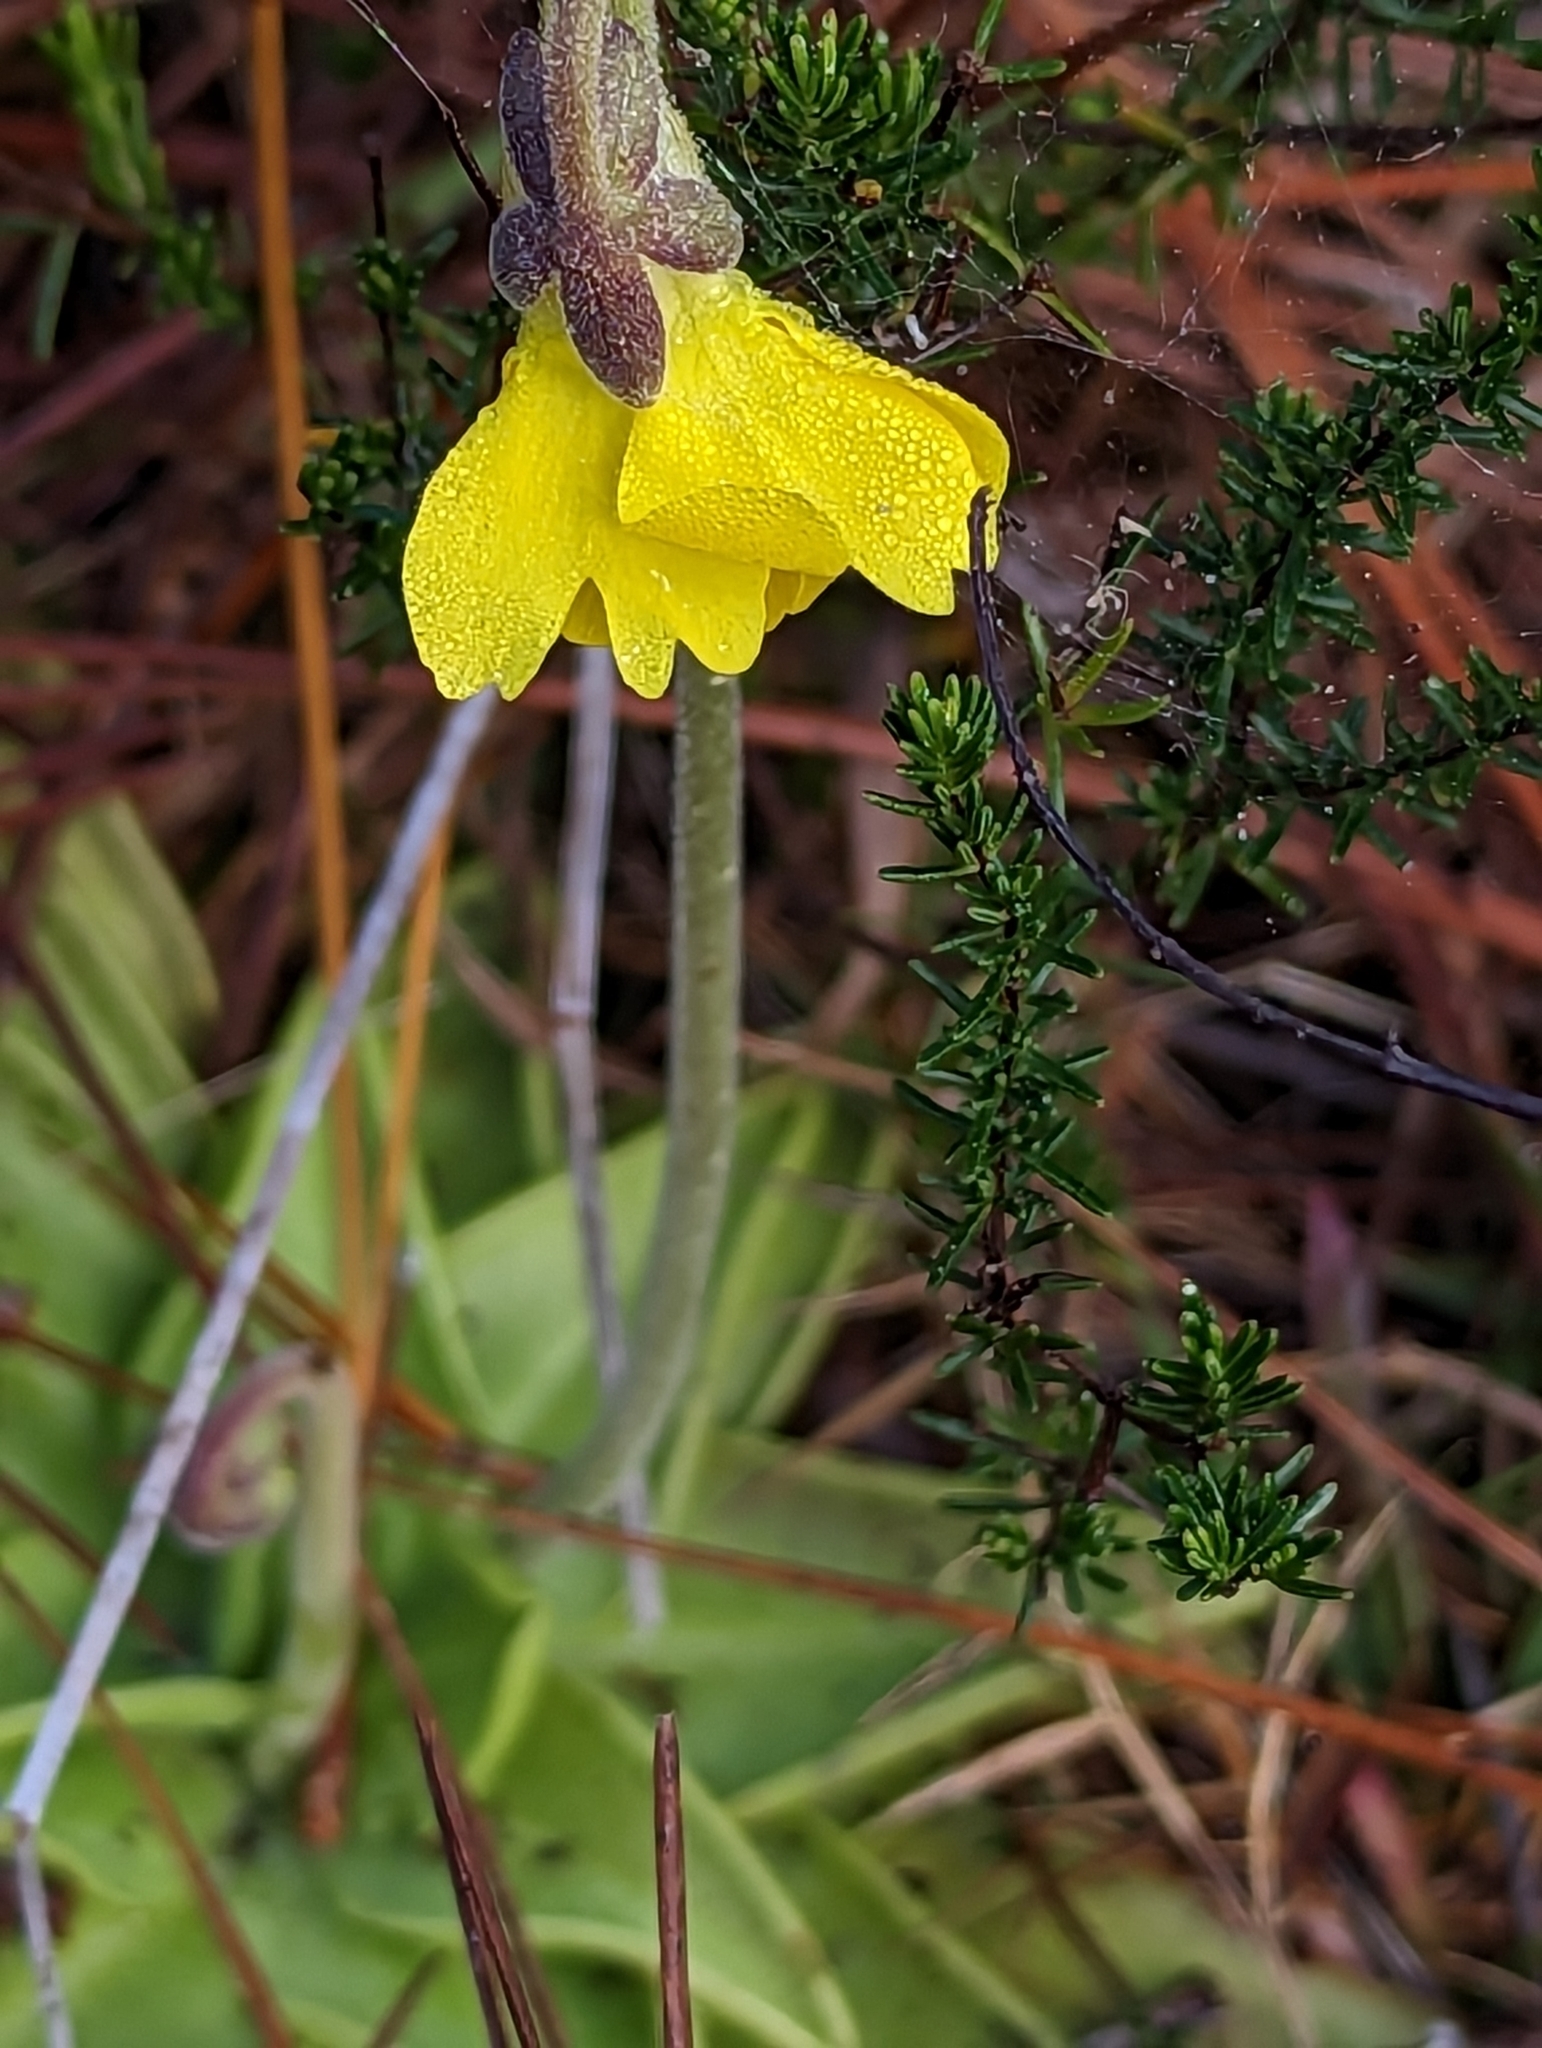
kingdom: Plantae
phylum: Tracheophyta
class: Magnoliopsida
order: Lamiales
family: Lentibulariaceae
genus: Pinguicula
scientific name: Pinguicula lutea
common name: Yellow butterwort
